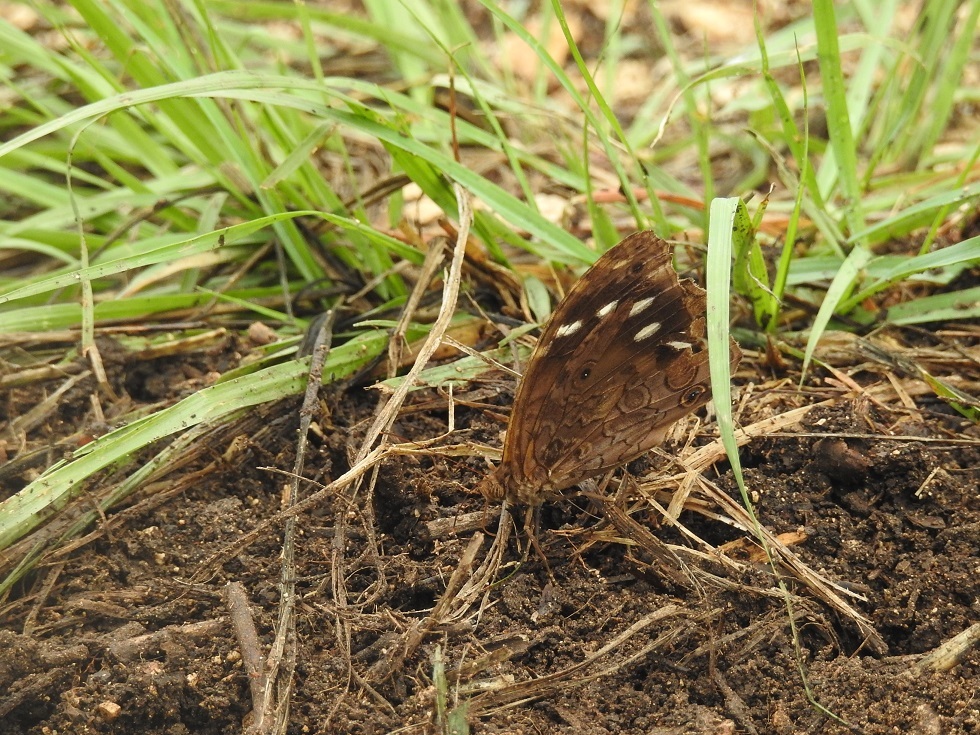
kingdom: Animalia
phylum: Arthropoda
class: Insecta
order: Lepidoptera
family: Nymphalidae
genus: Manataria
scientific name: Manataria maculata
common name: White-spotted satyr
